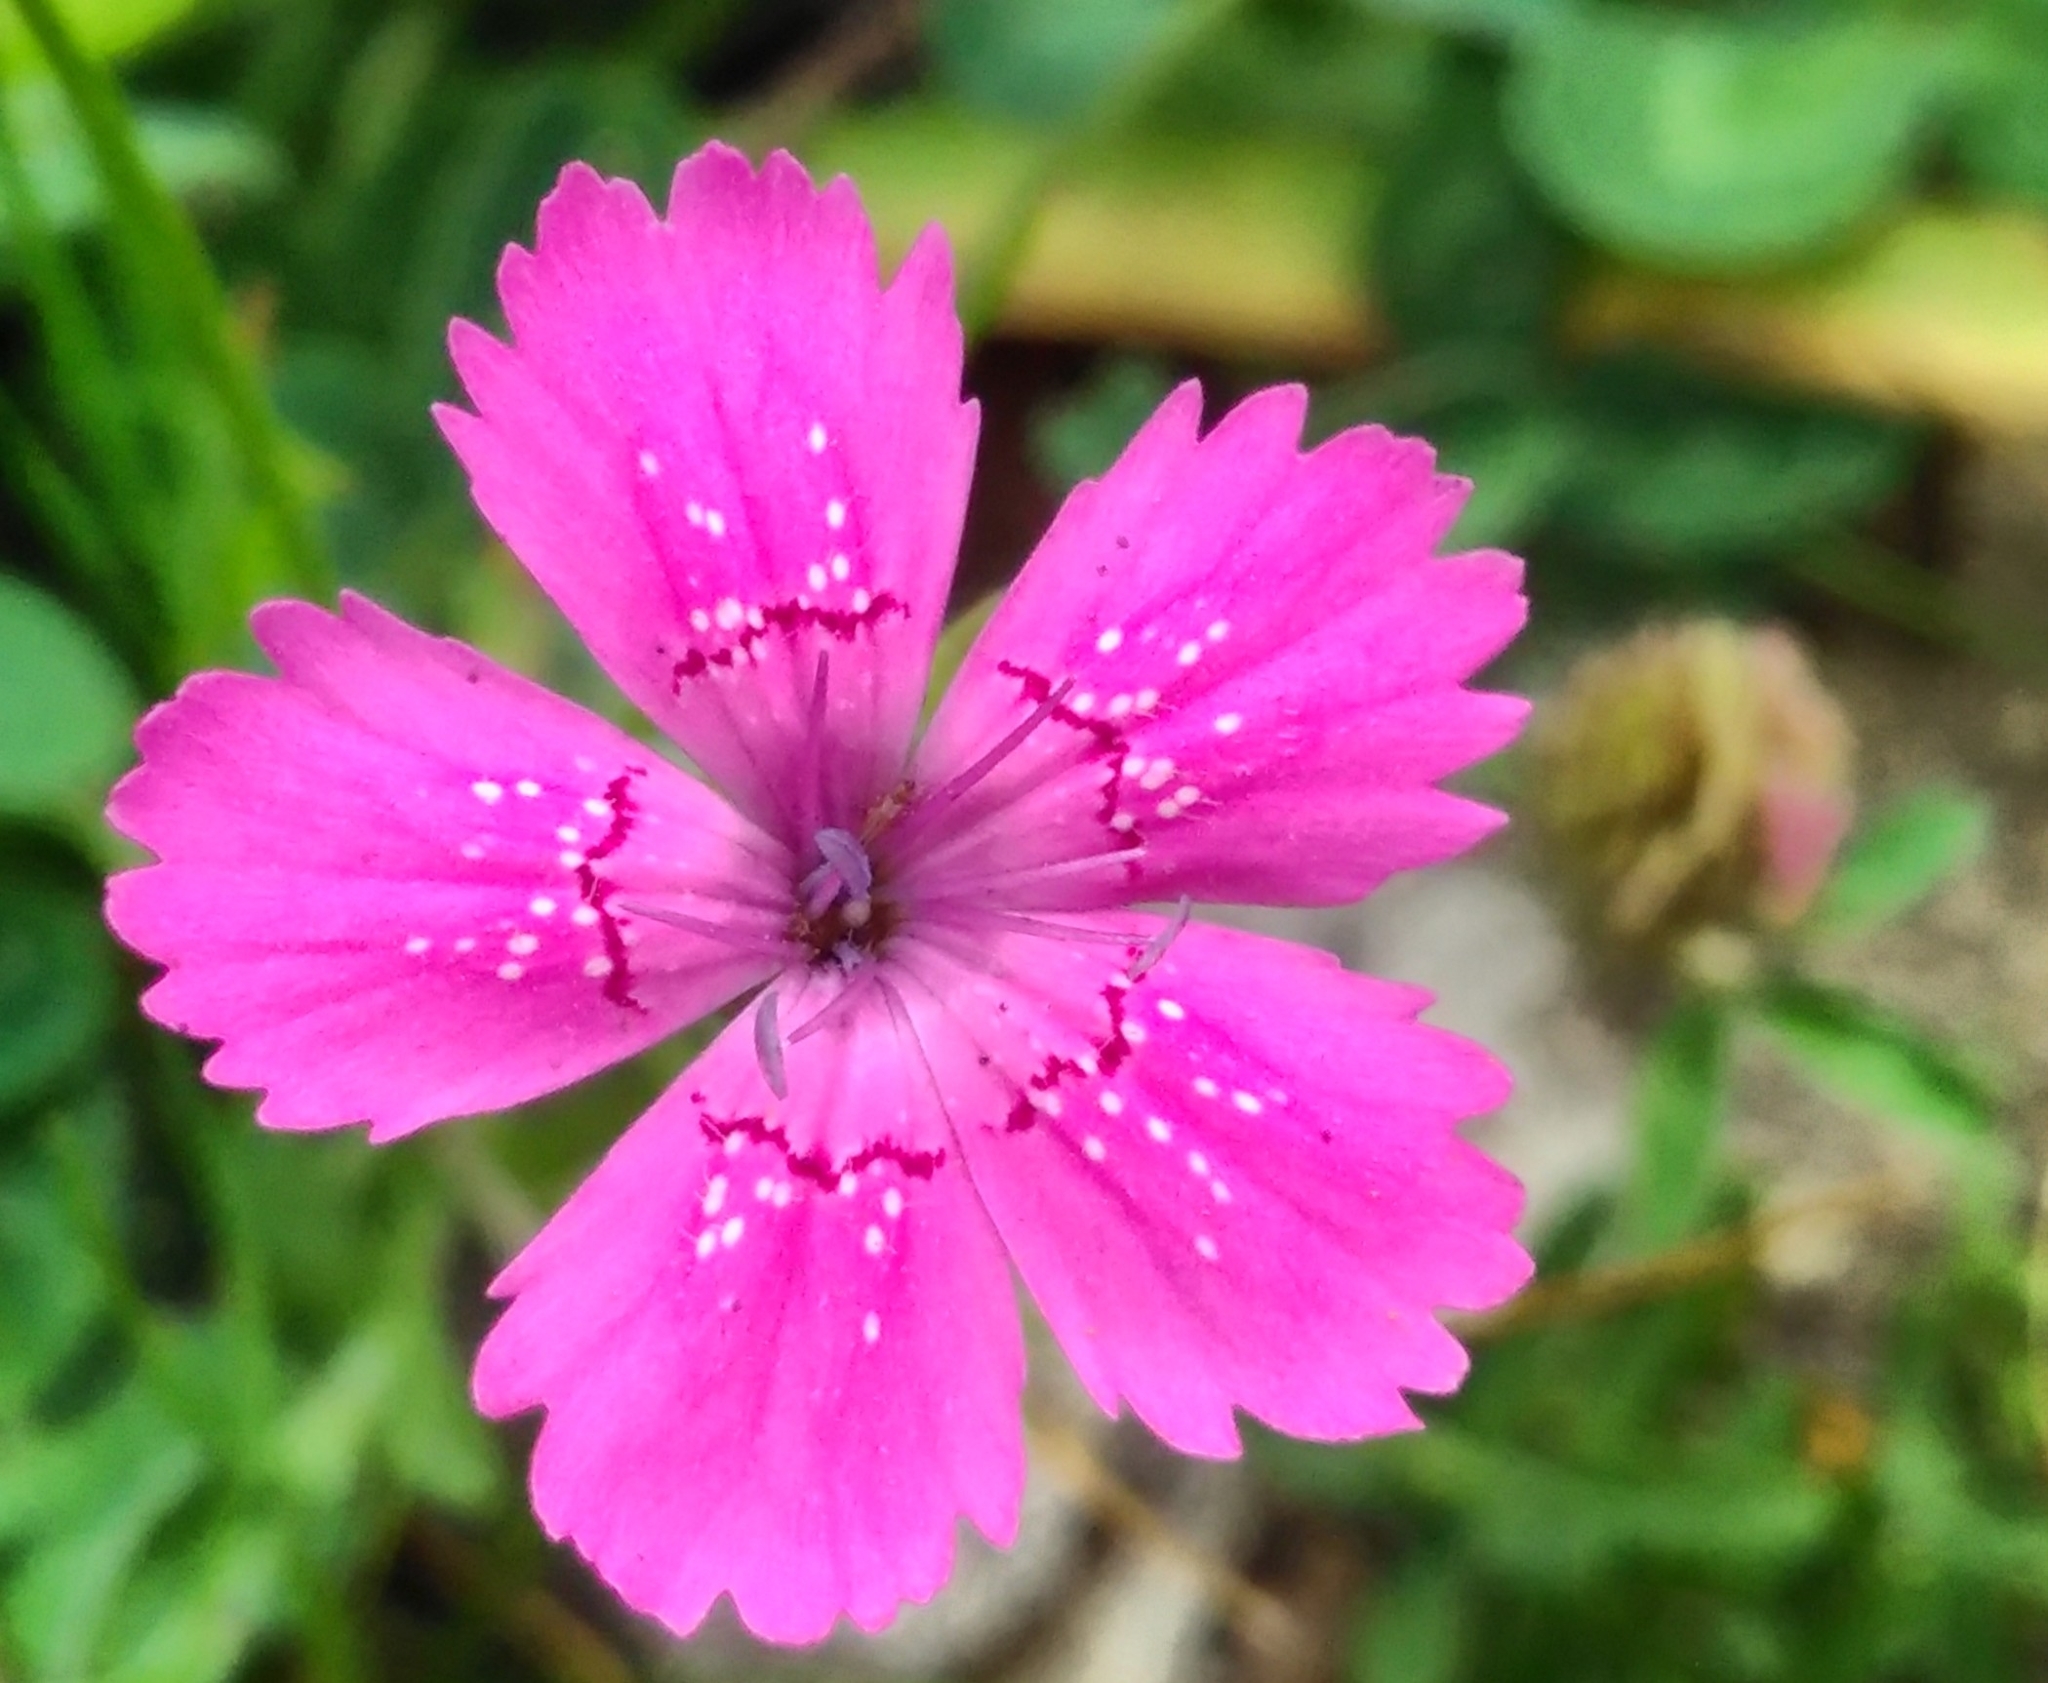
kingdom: Plantae
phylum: Tracheophyta
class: Magnoliopsida
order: Caryophyllales
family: Caryophyllaceae
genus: Dianthus
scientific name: Dianthus deltoides
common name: Maiden pink
